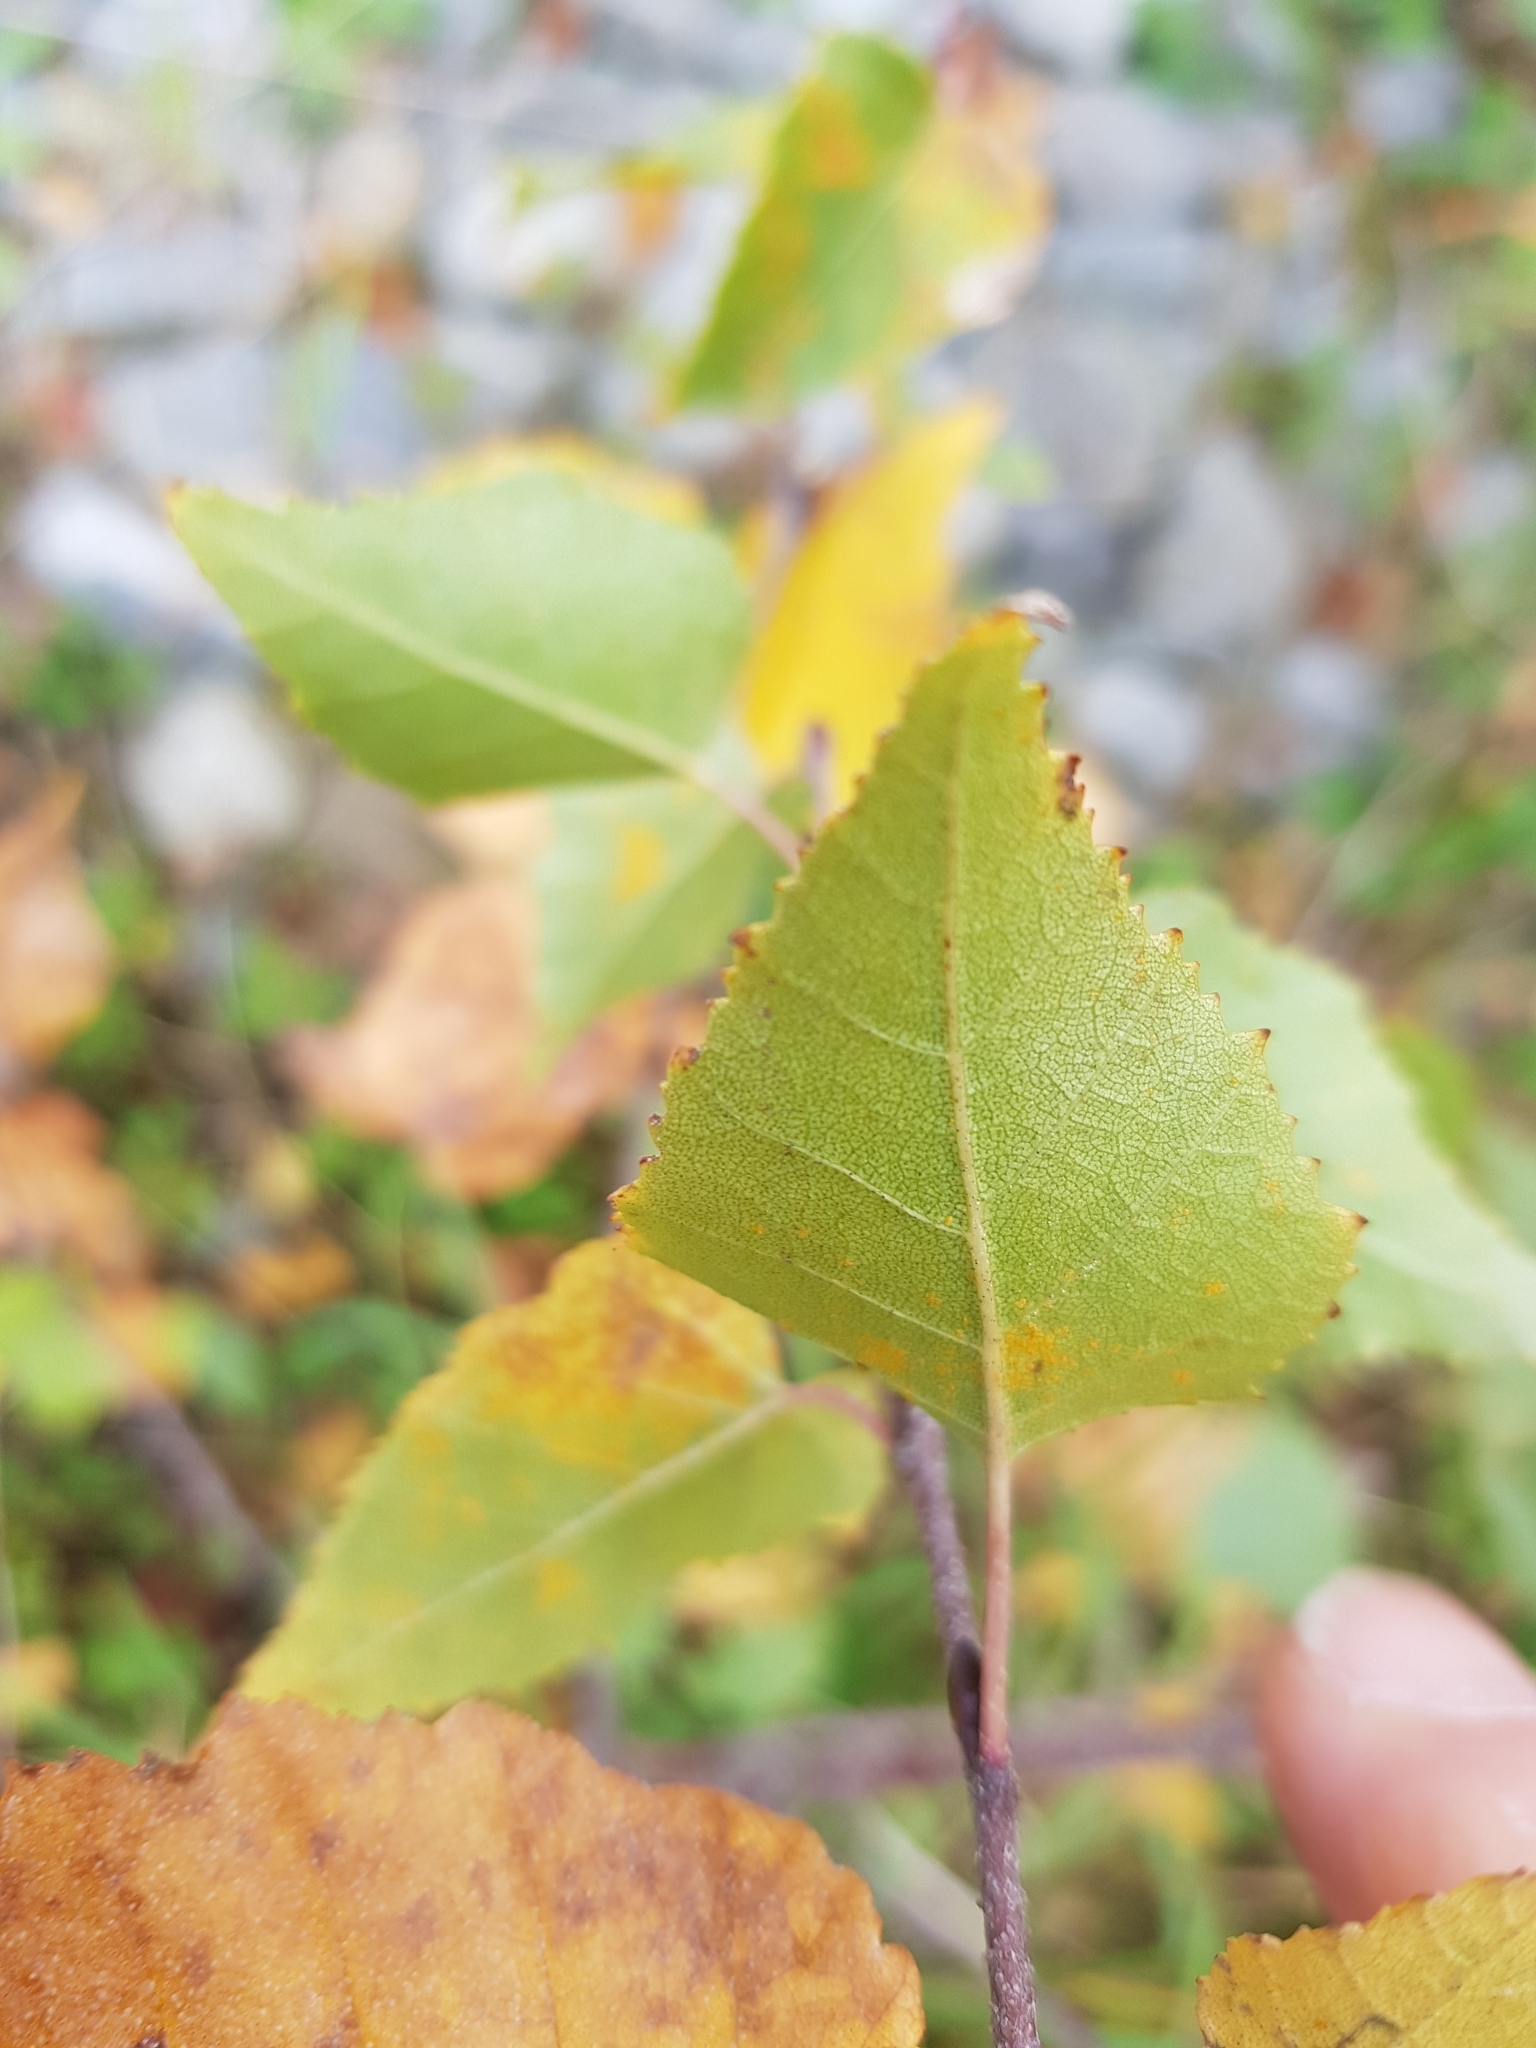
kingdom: Plantae
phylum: Tracheophyta
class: Magnoliopsida
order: Fagales
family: Betulaceae
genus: Betula
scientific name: Betula pendula
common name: Silver birch
